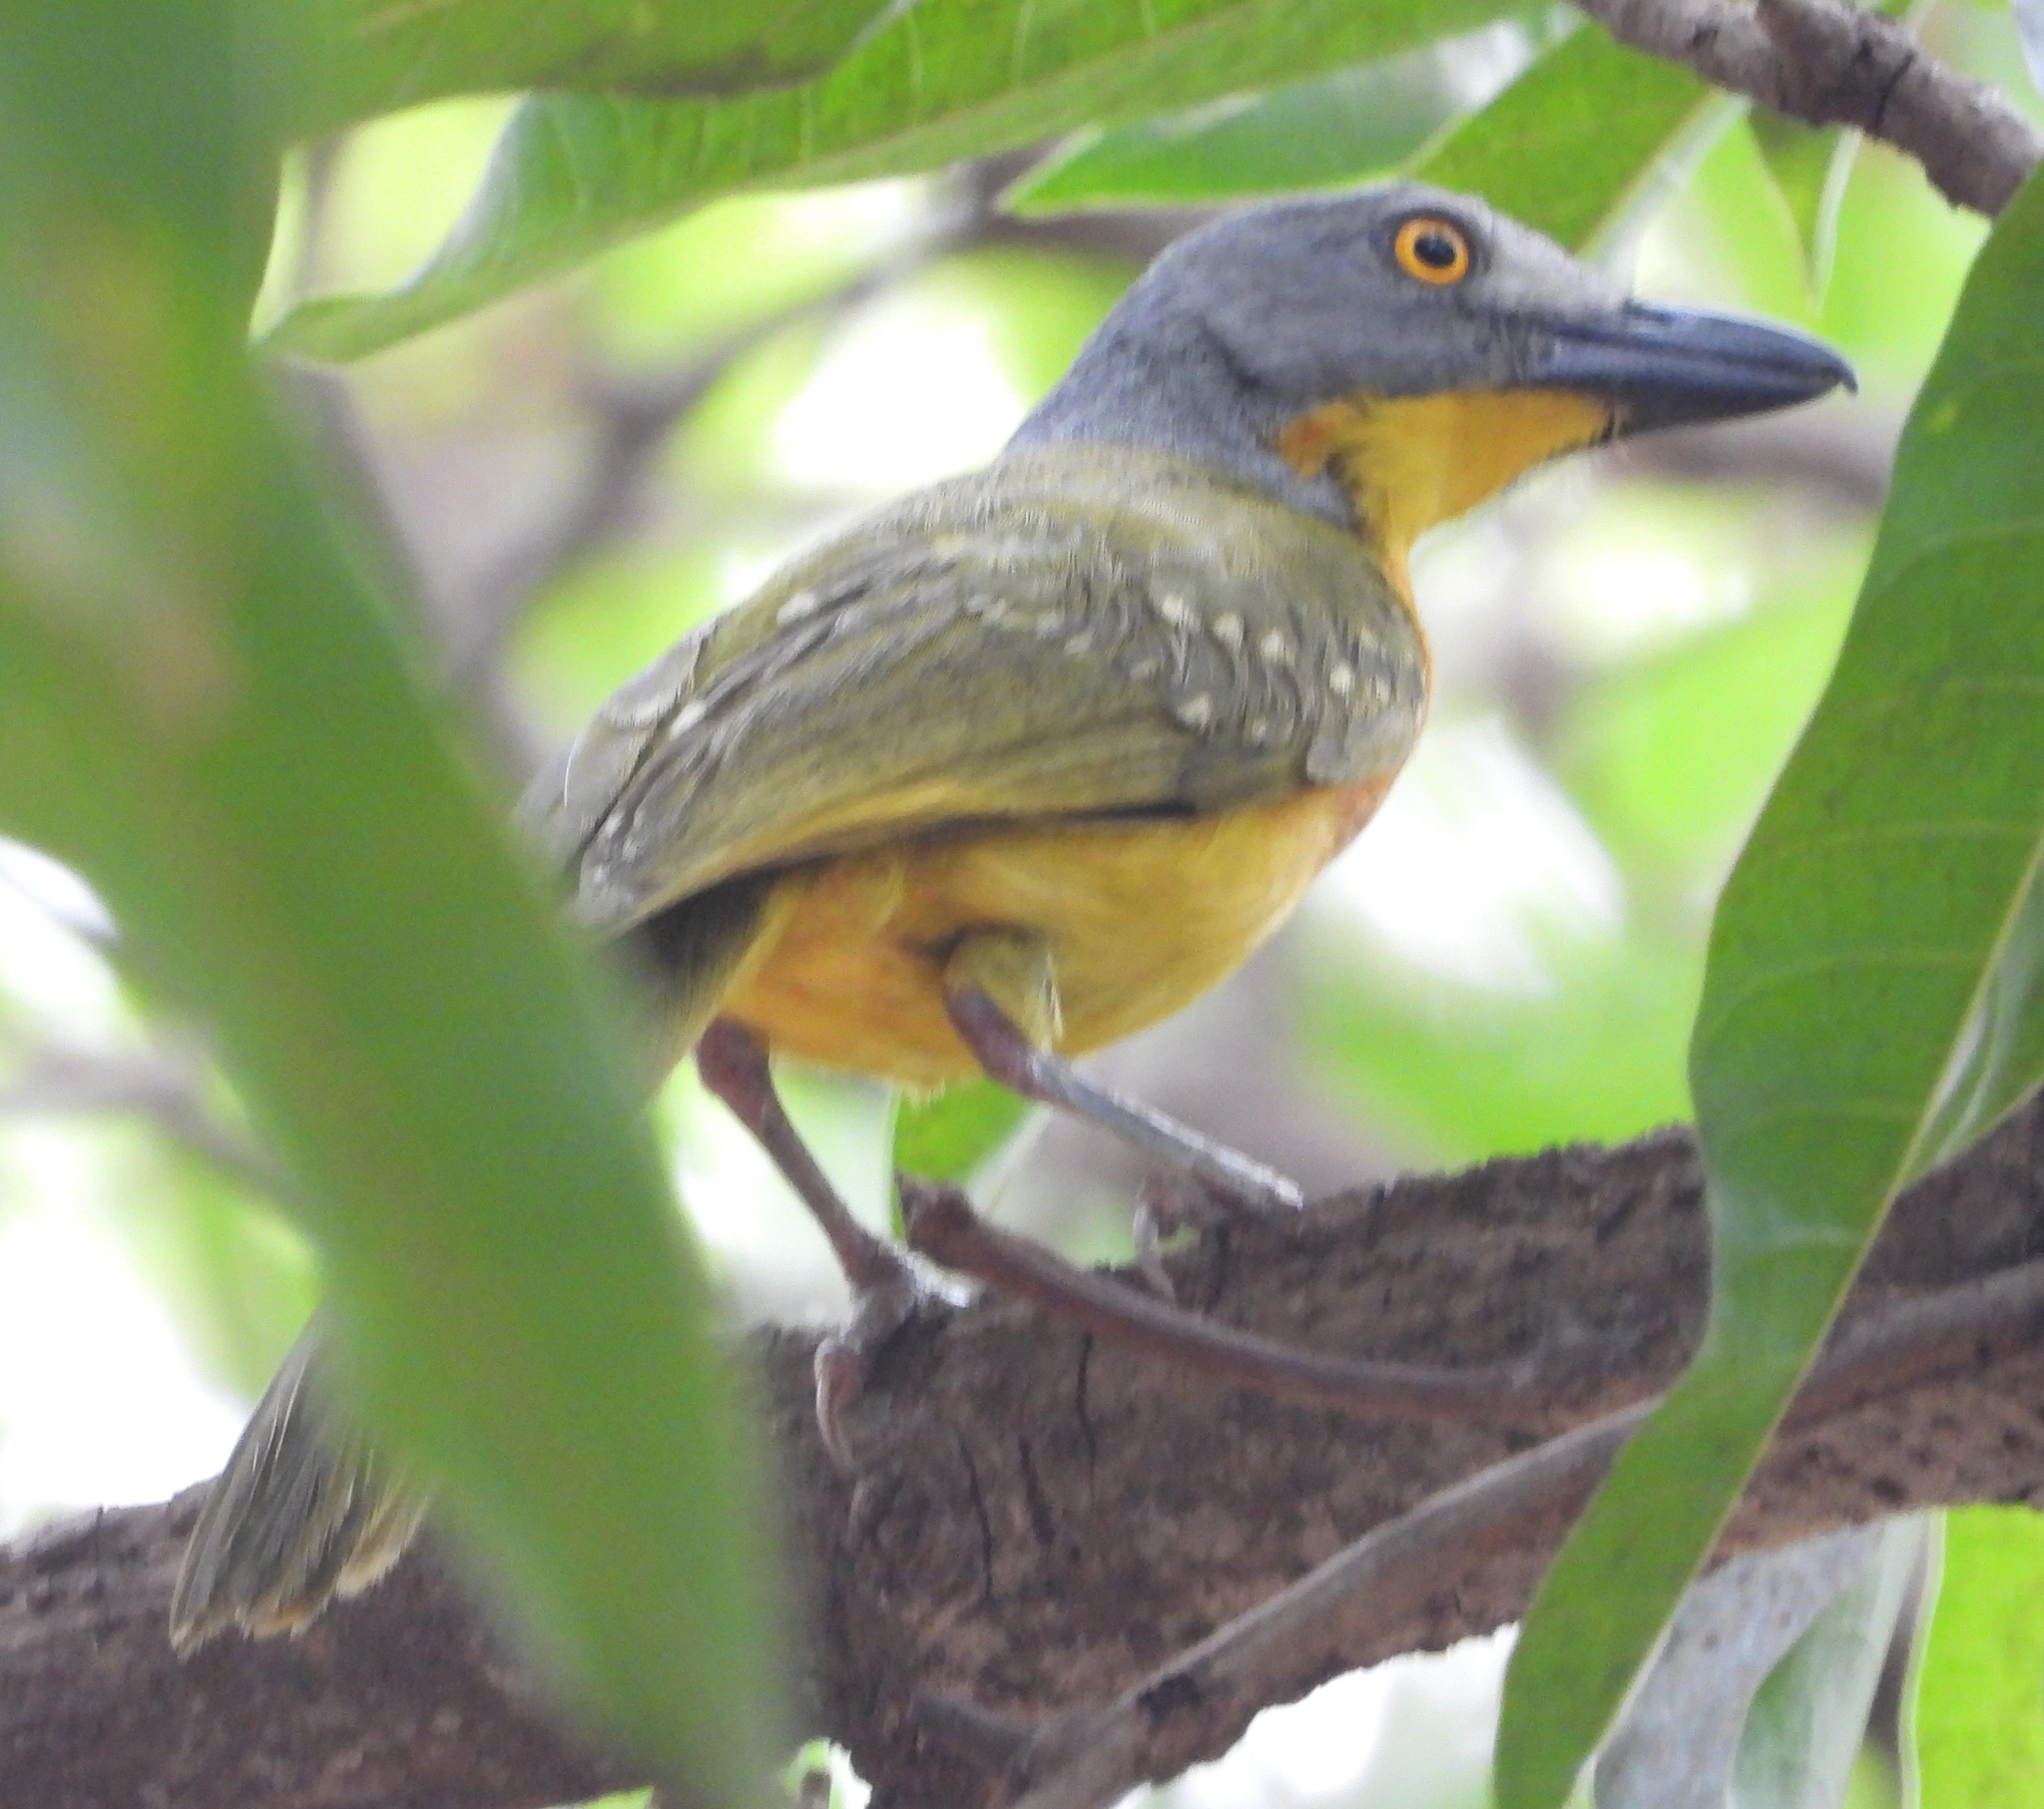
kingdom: Animalia
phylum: Chordata
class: Aves
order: Passeriformes
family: Malaconotidae
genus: Malaconotus
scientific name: Malaconotus blanchoti
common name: Grey-headed bushshrike
